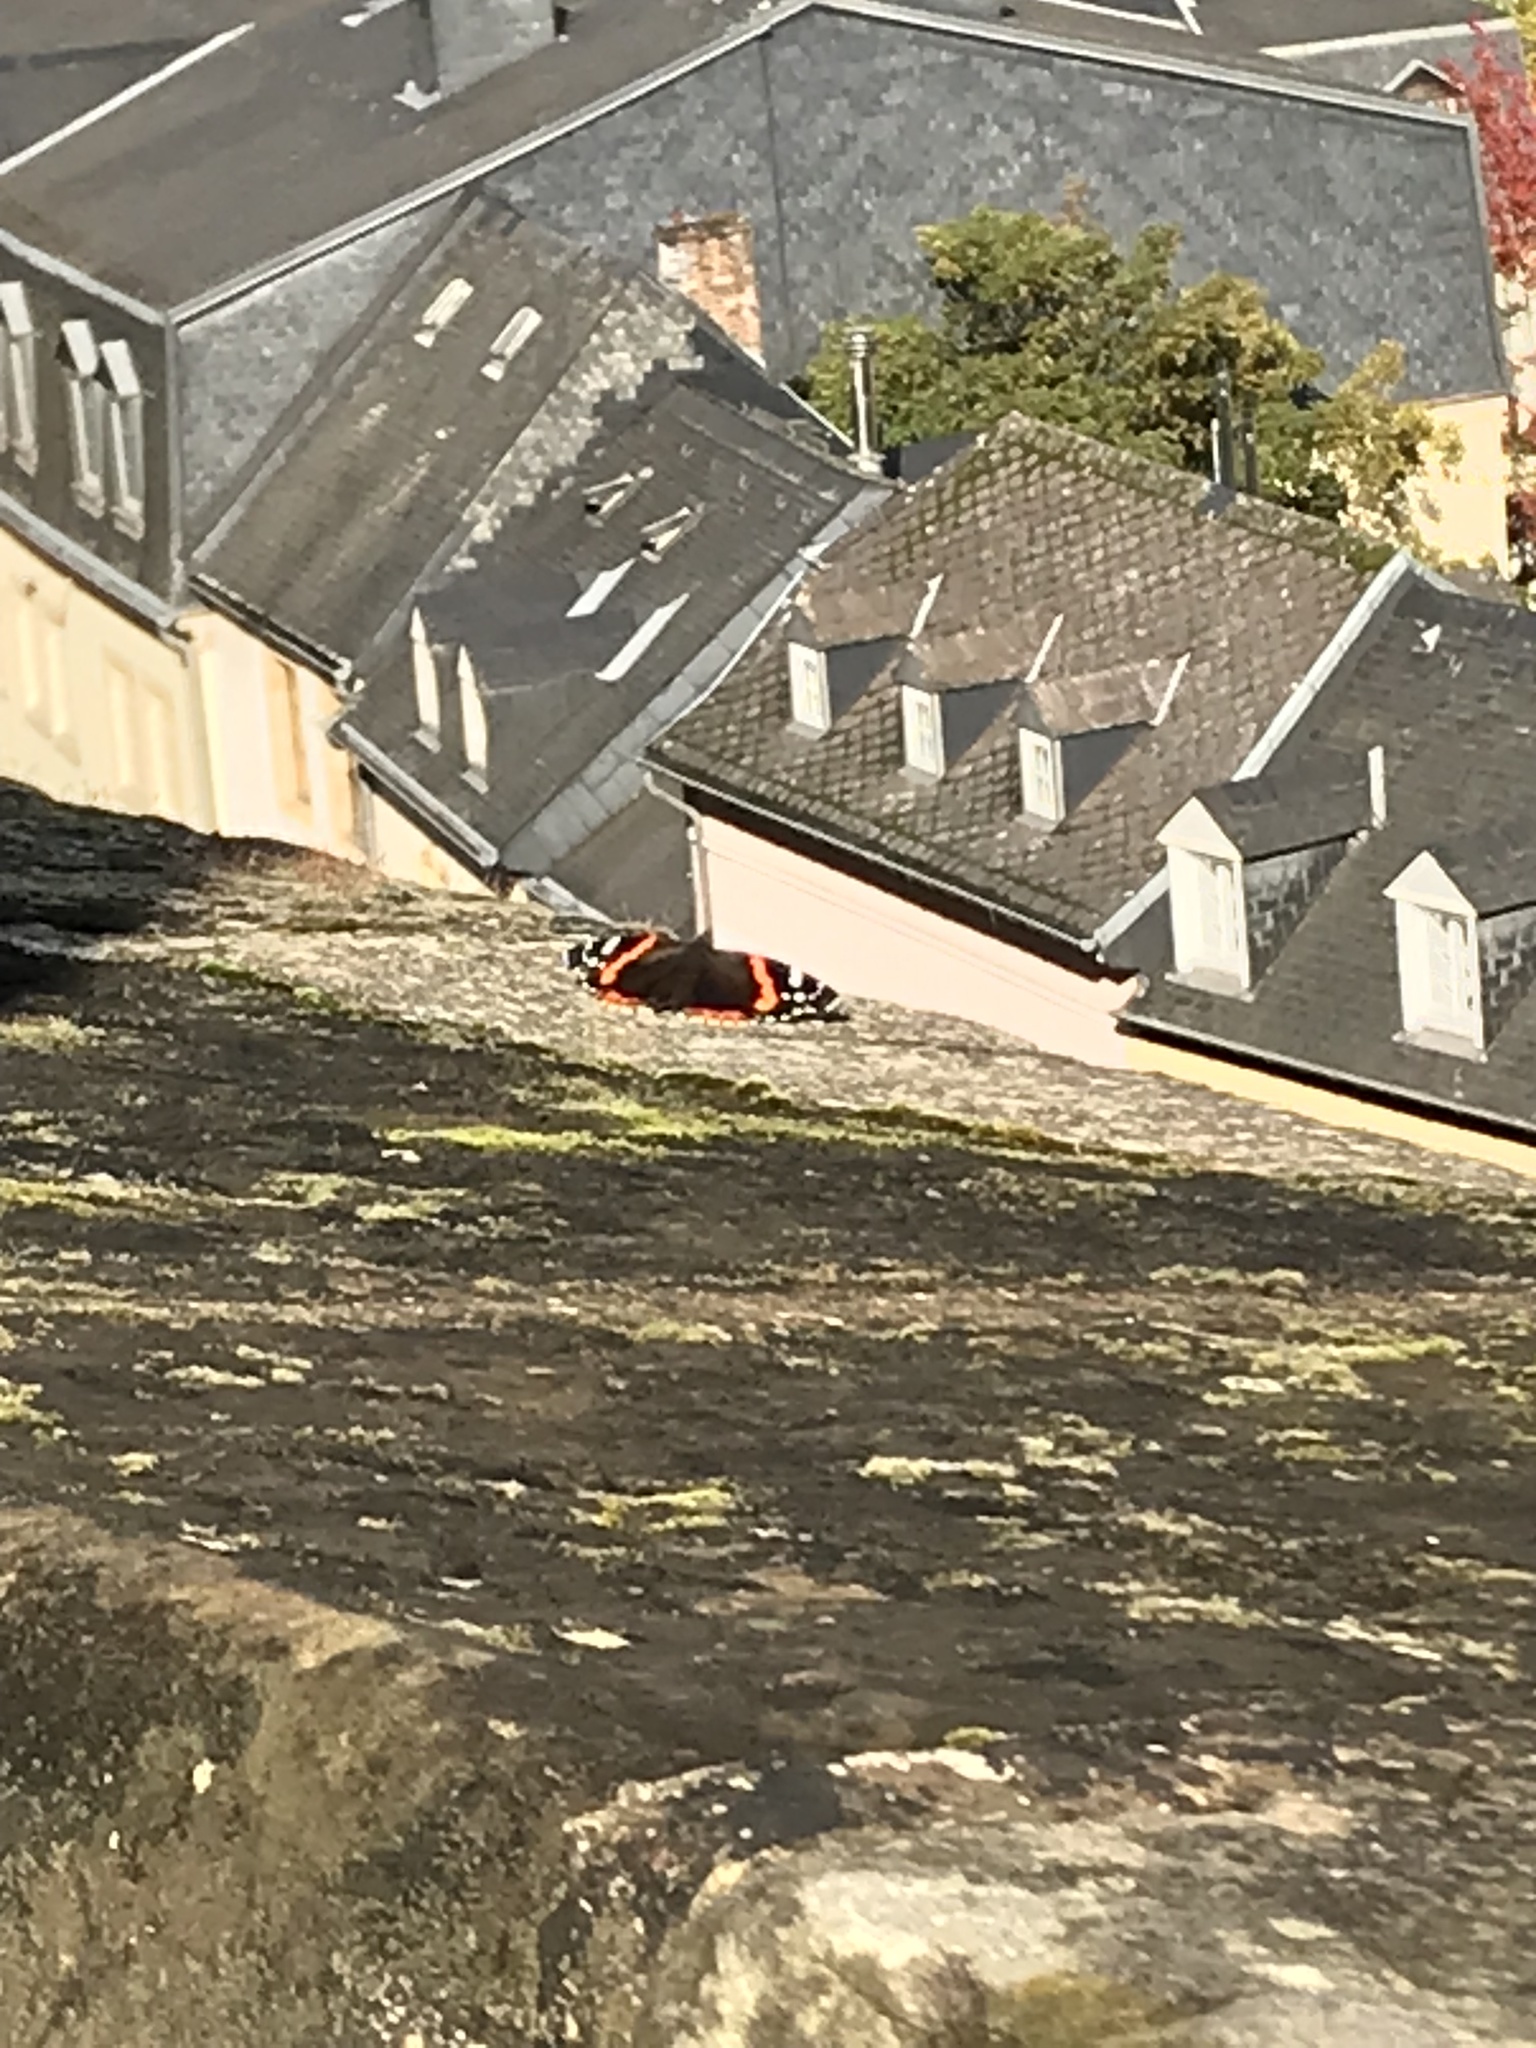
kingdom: Animalia
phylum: Arthropoda
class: Insecta
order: Lepidoptera
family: Nymphalidae
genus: Vanessa
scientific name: Vanessa atalanta
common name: Red admiral
